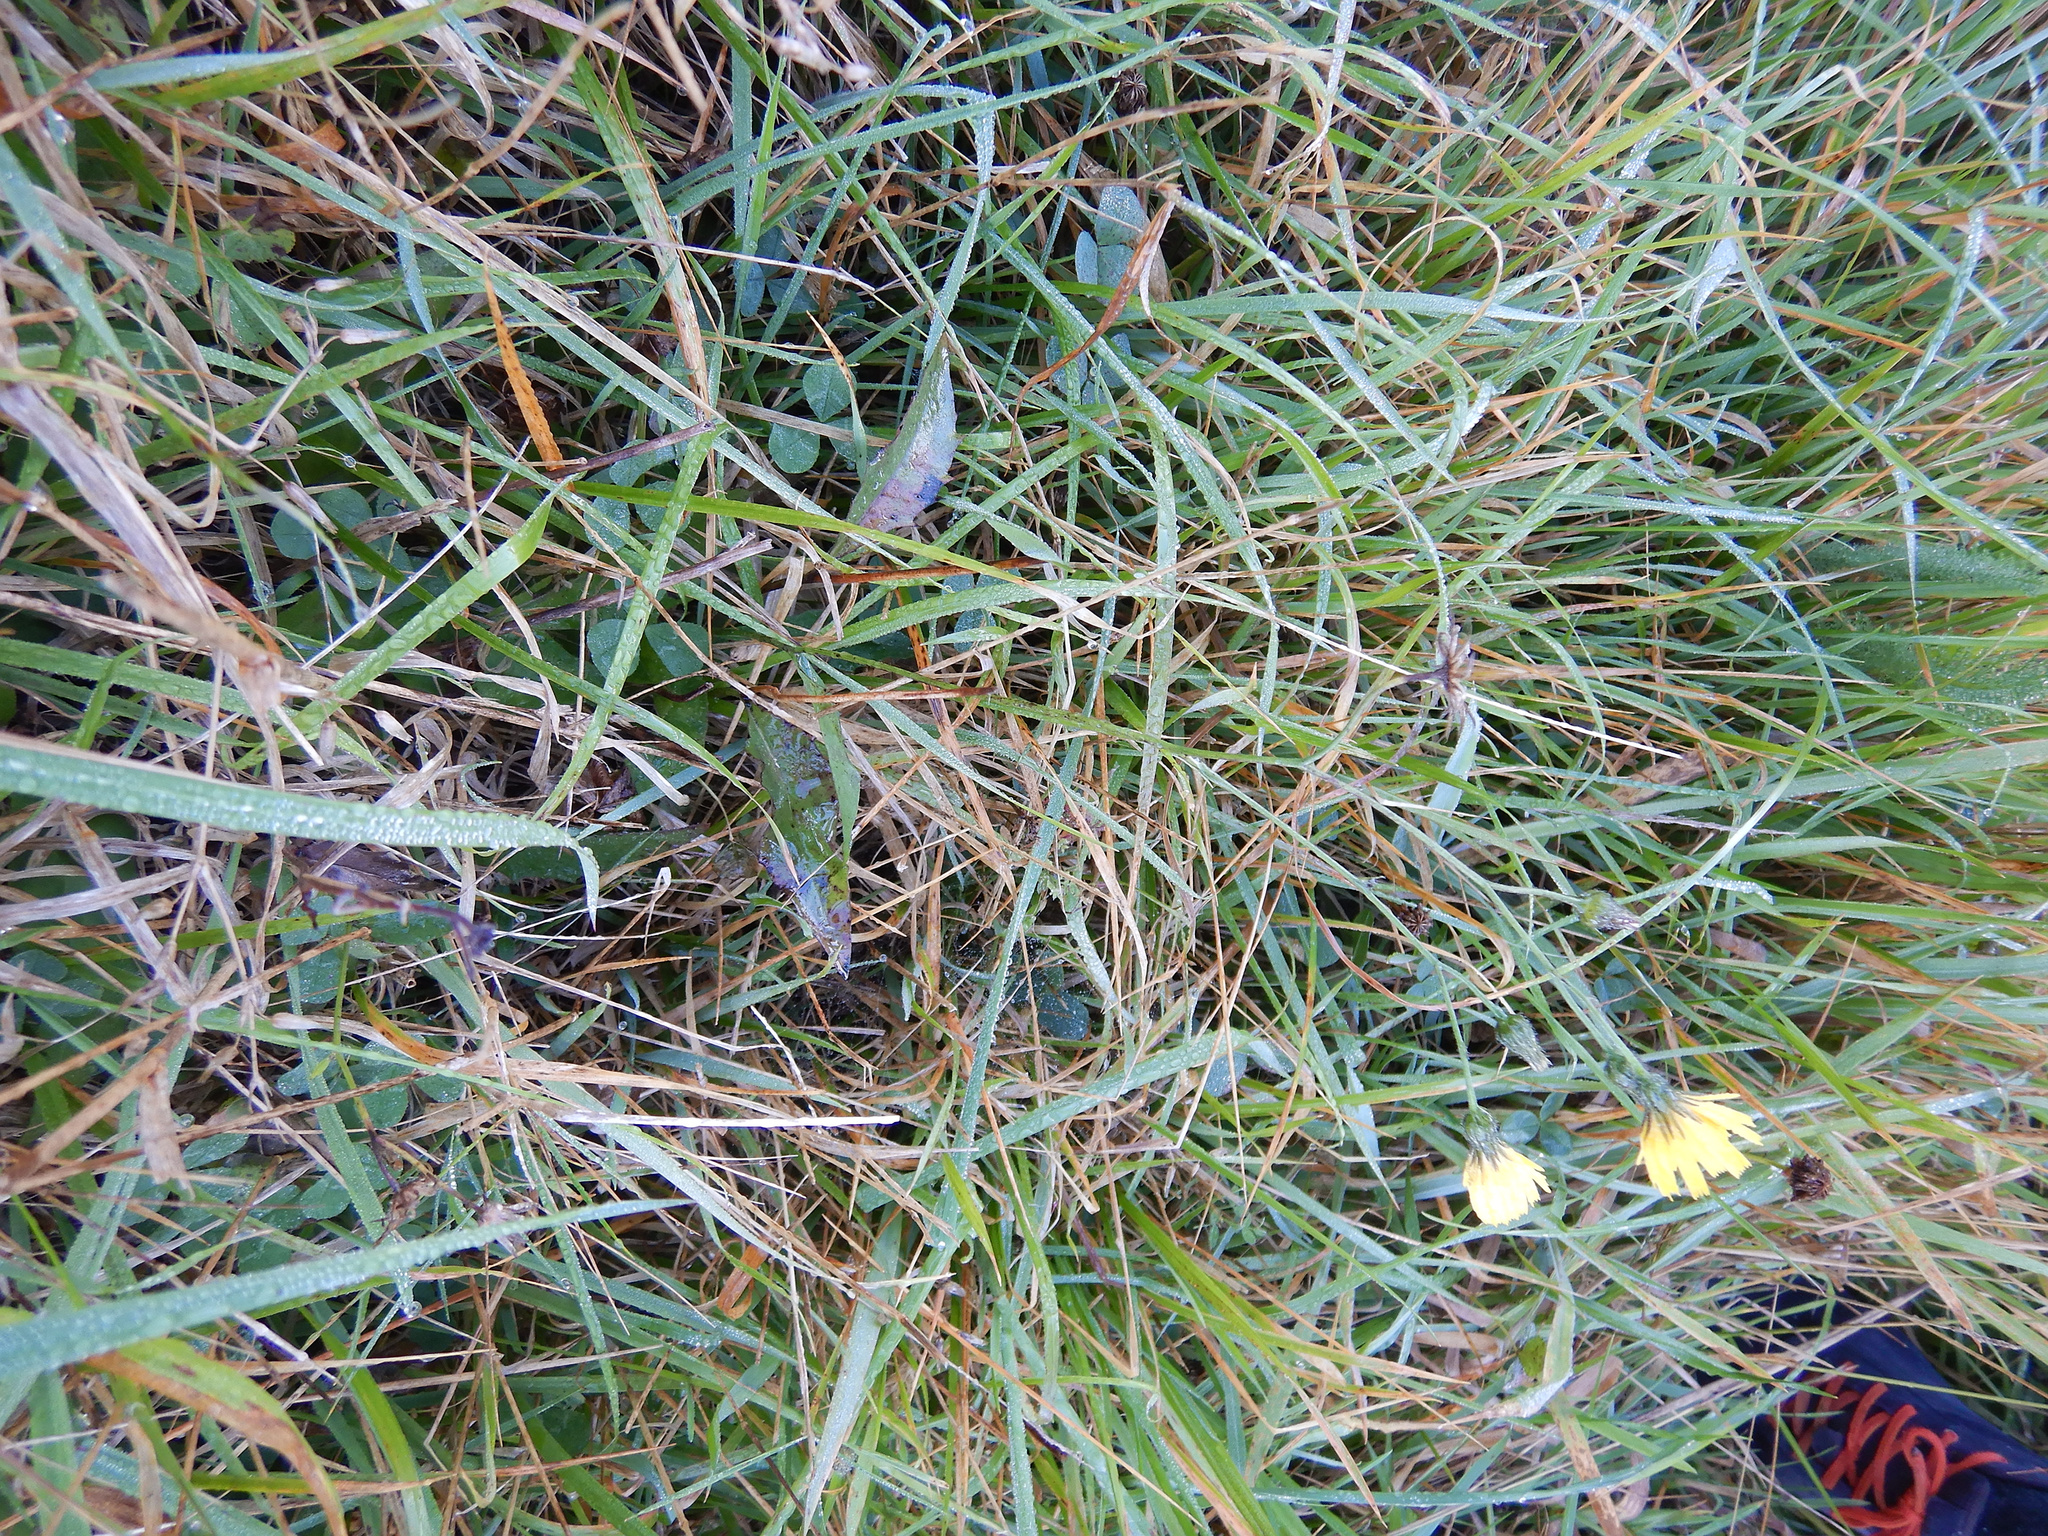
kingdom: Plantae
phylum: Tracheophyta
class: Magnoliopsida
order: Asterales
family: Asteraceae
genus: Hieracium
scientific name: Hieracium lepidulum
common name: Irregular-toothed hawkweed
